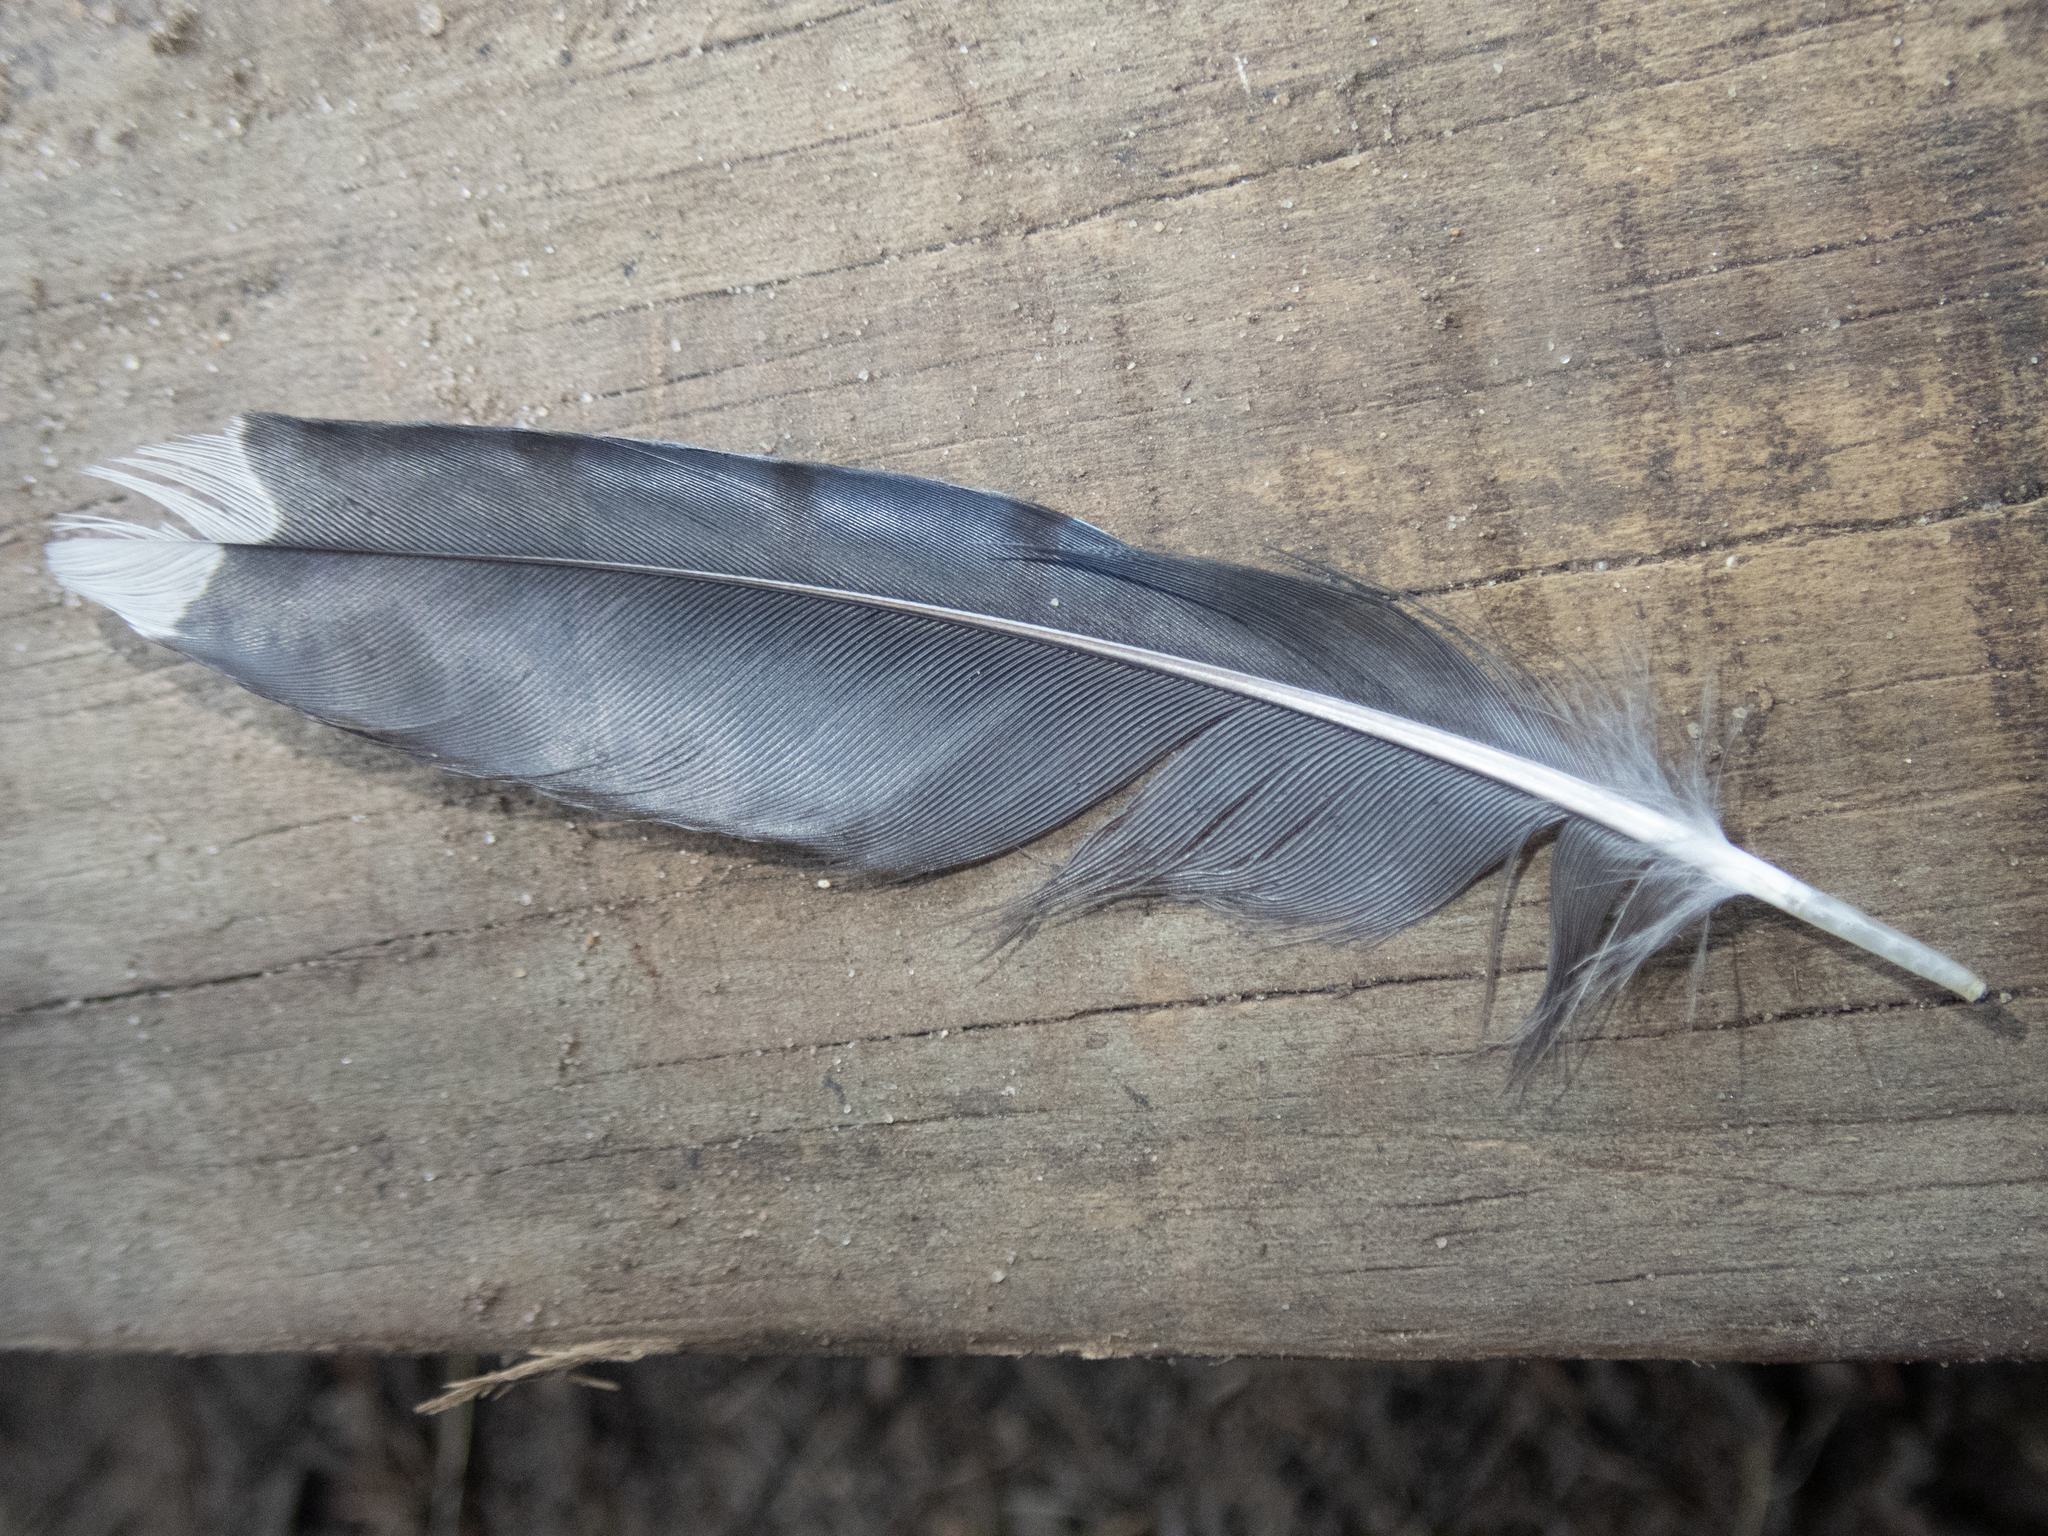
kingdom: Animalia
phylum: Chordata
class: Aves
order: Passeriformes
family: Corvidae
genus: Cyanocitta
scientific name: Cyanocitta cristata
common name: Blue jay
